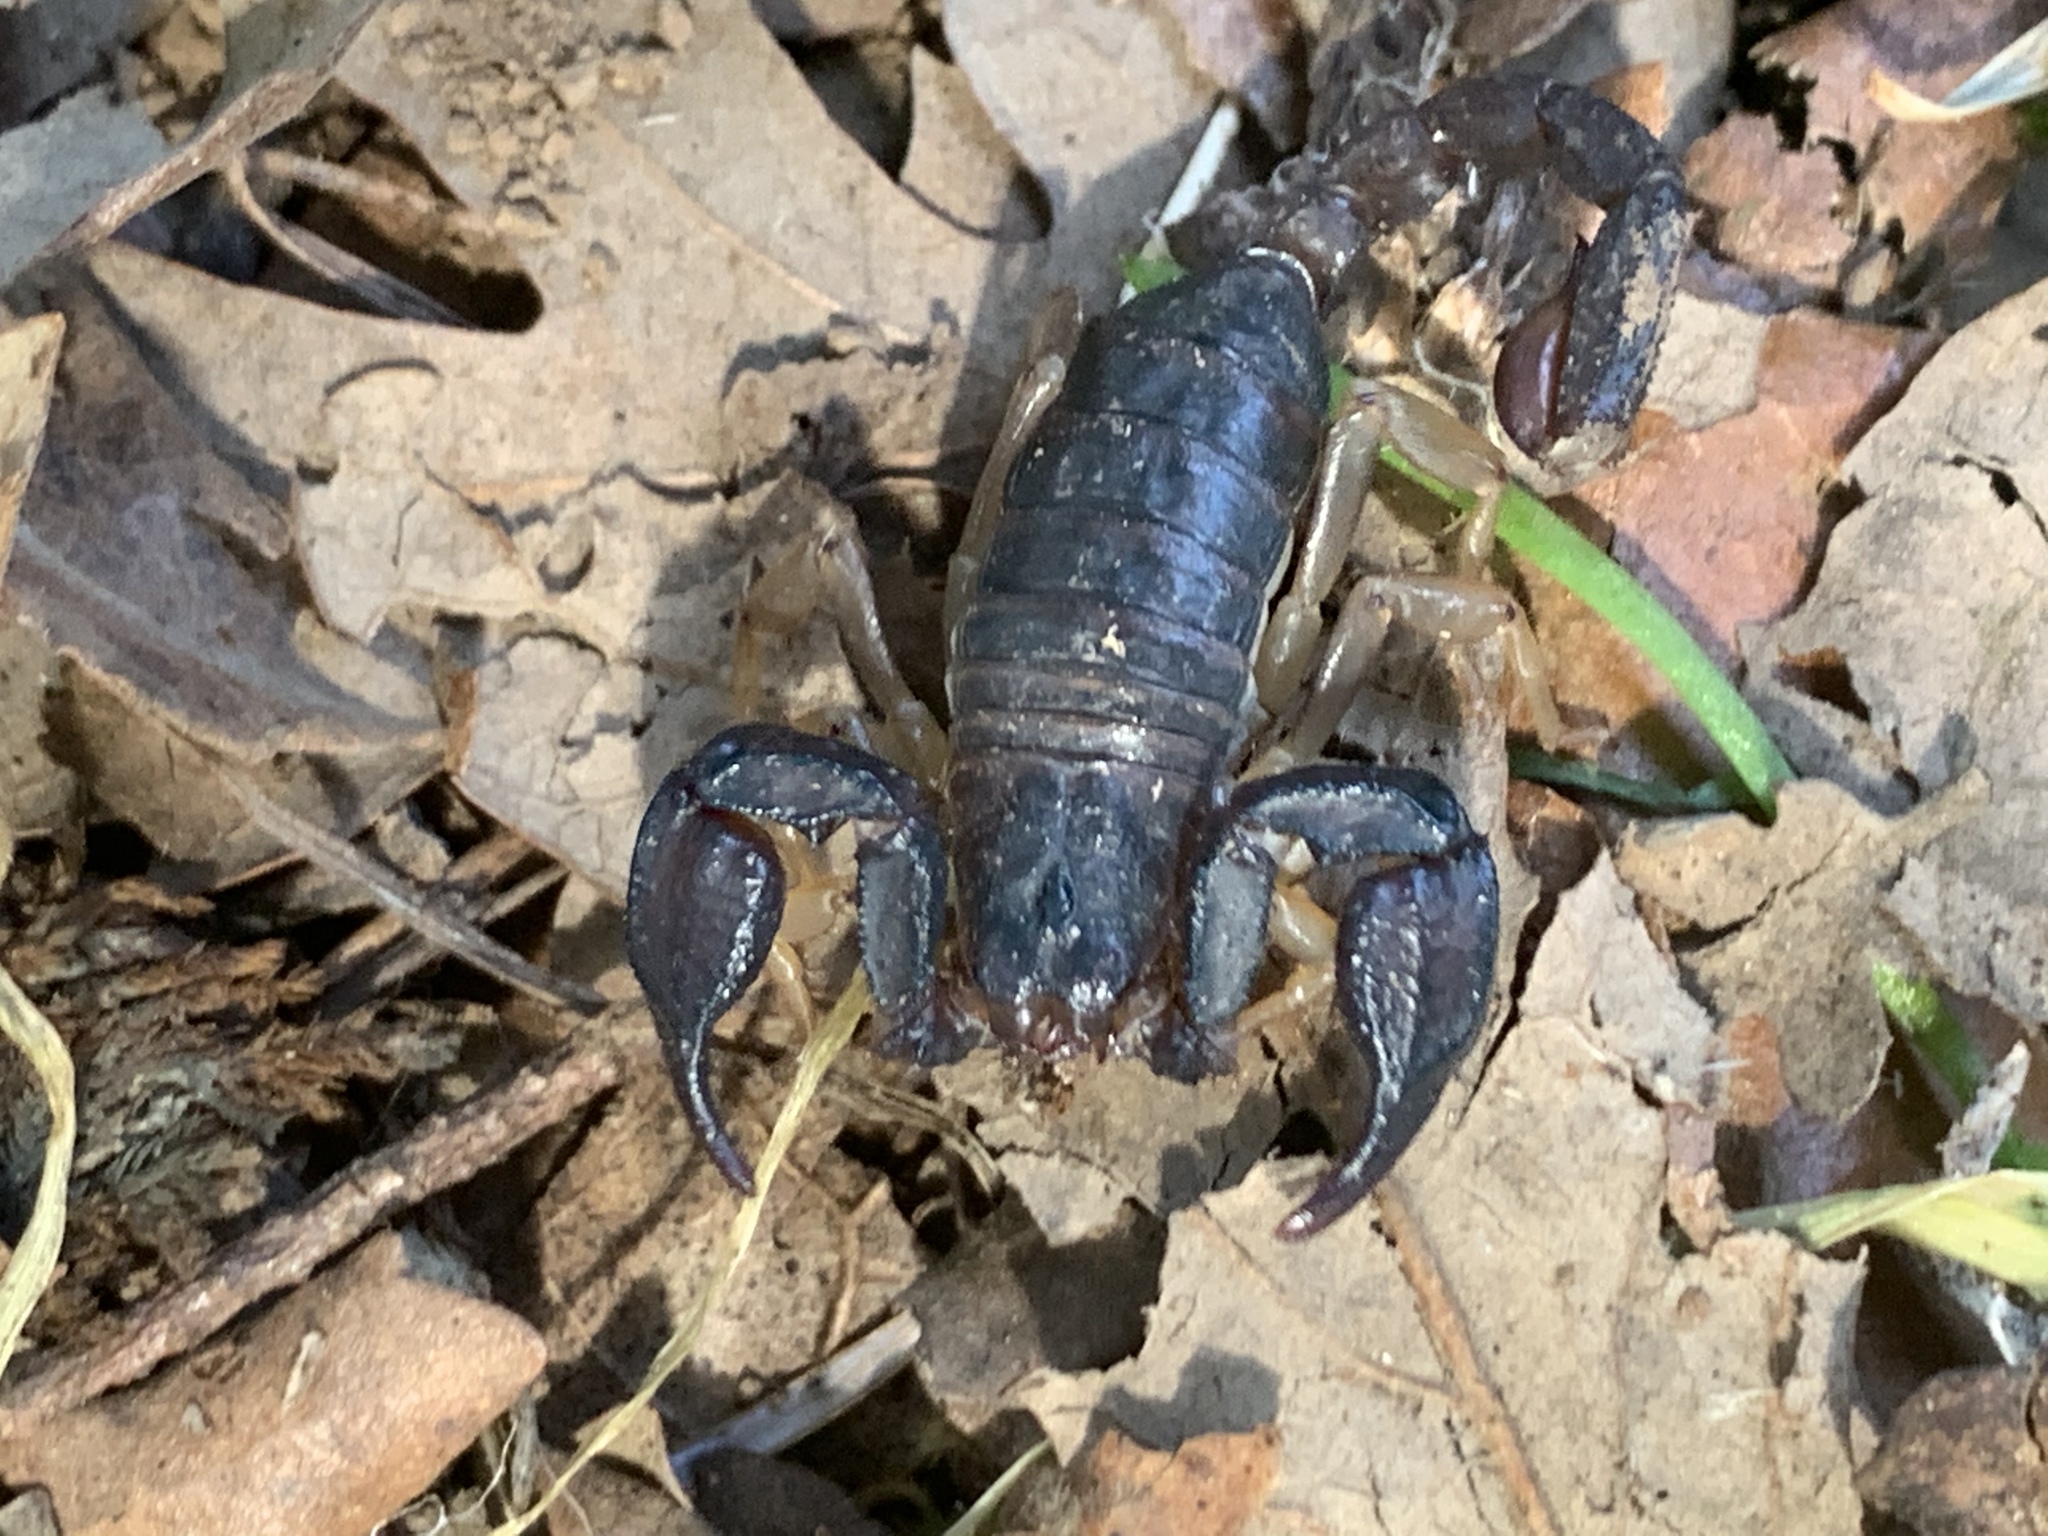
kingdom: Animalia
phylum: Arthropoda
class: Arachnida
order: Scorpiones
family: Chactidae
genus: Uroctonus
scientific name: Uroctonus mordax
